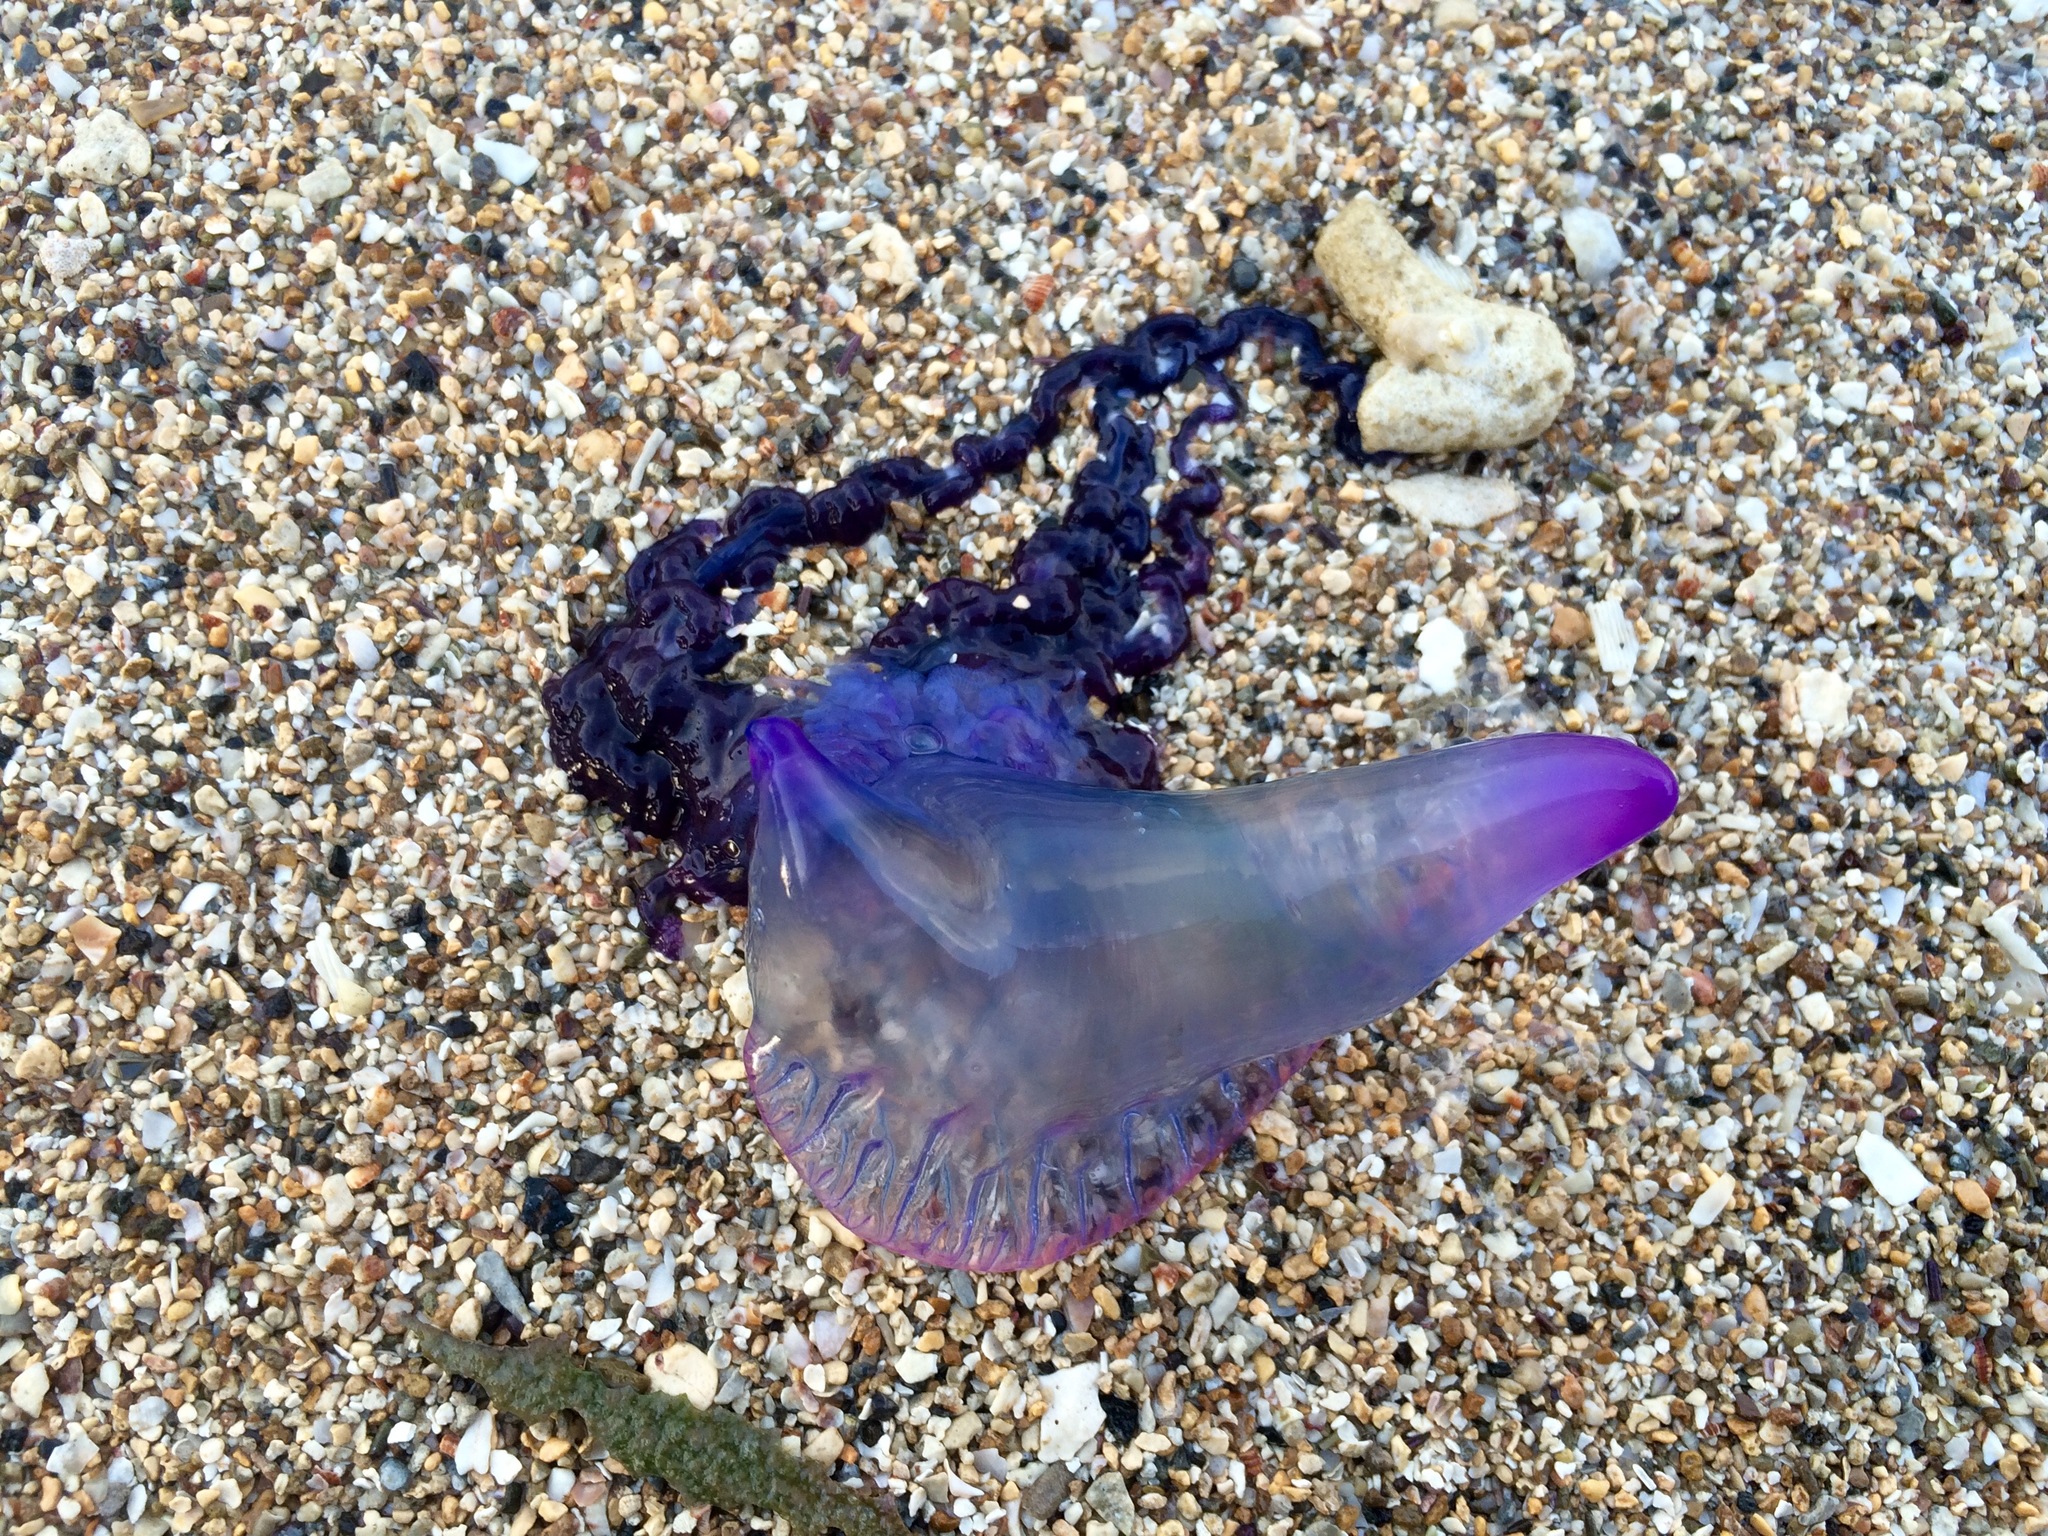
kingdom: Animalia
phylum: Cnidaria
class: Hydrozoa
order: Siphonophorae
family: Physaliidae
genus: Physalia
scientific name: Physalia physalis
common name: Portuguese man-of-war
